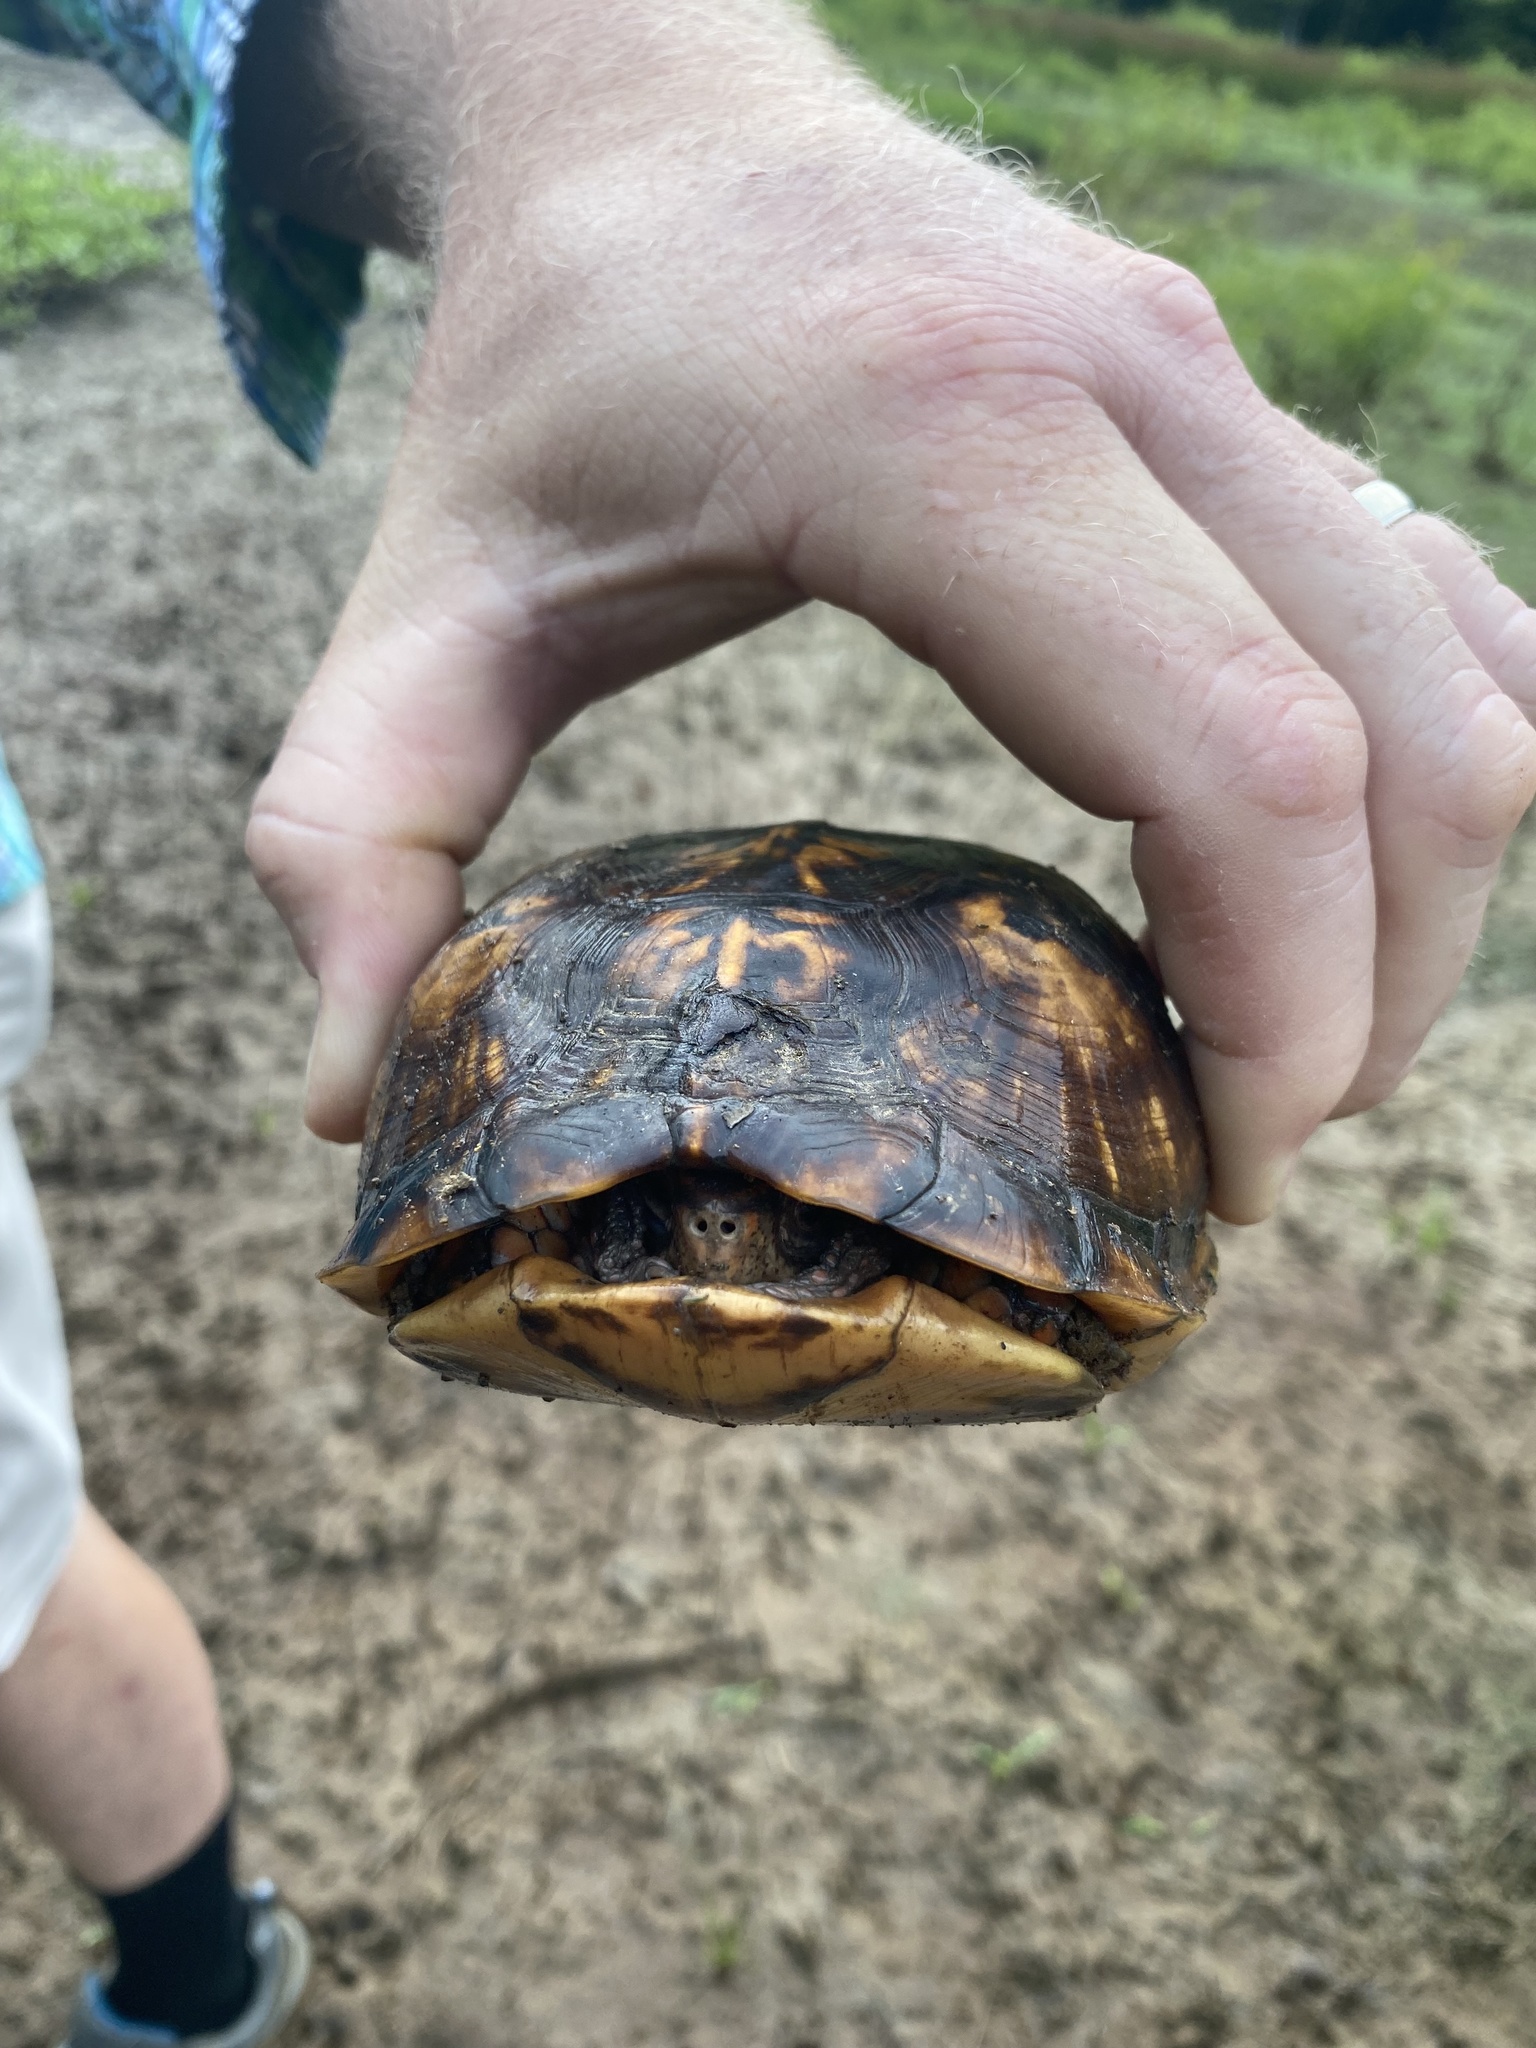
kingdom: Animalia
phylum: Chordata
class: Testudines
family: Emydidae
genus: Terrapene
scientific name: Terrapene carolina
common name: Common box turtle
